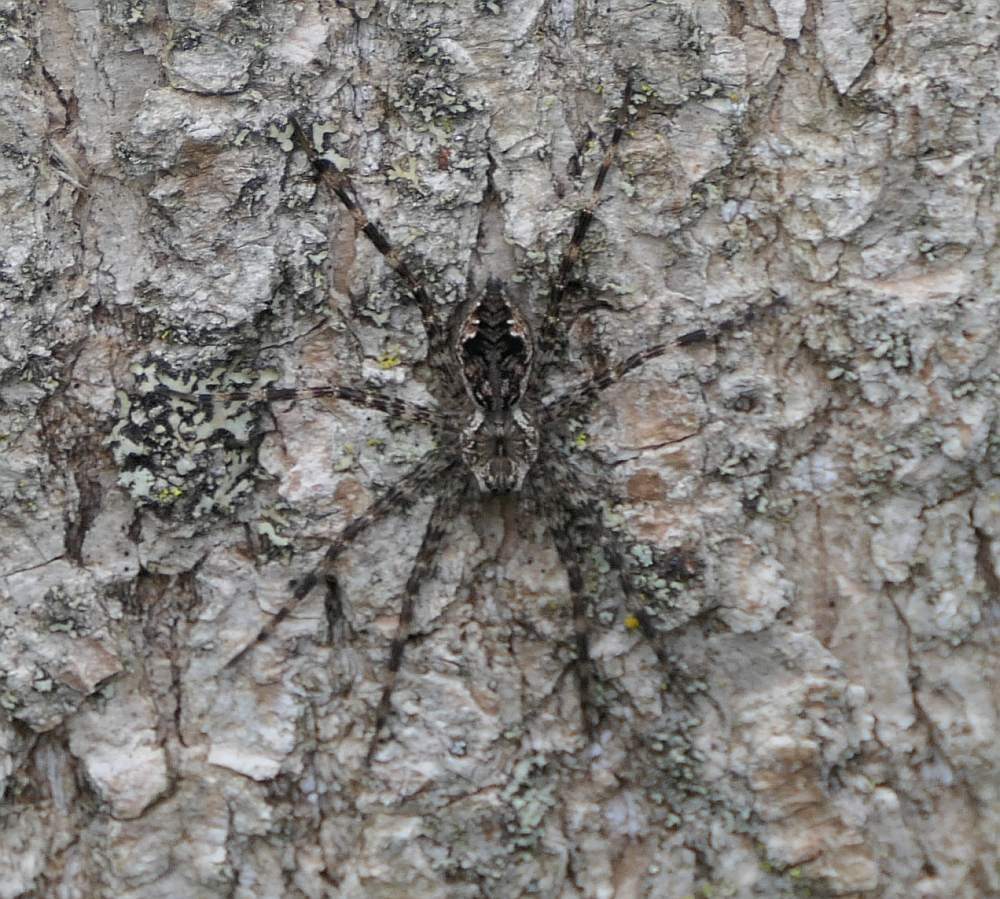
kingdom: Animalia
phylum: Arthropoda
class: Arachnida
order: Araneae
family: Pisauridae
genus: Dolomedes
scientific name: Dolomedes tenebrosus
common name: Dark fishing spider
